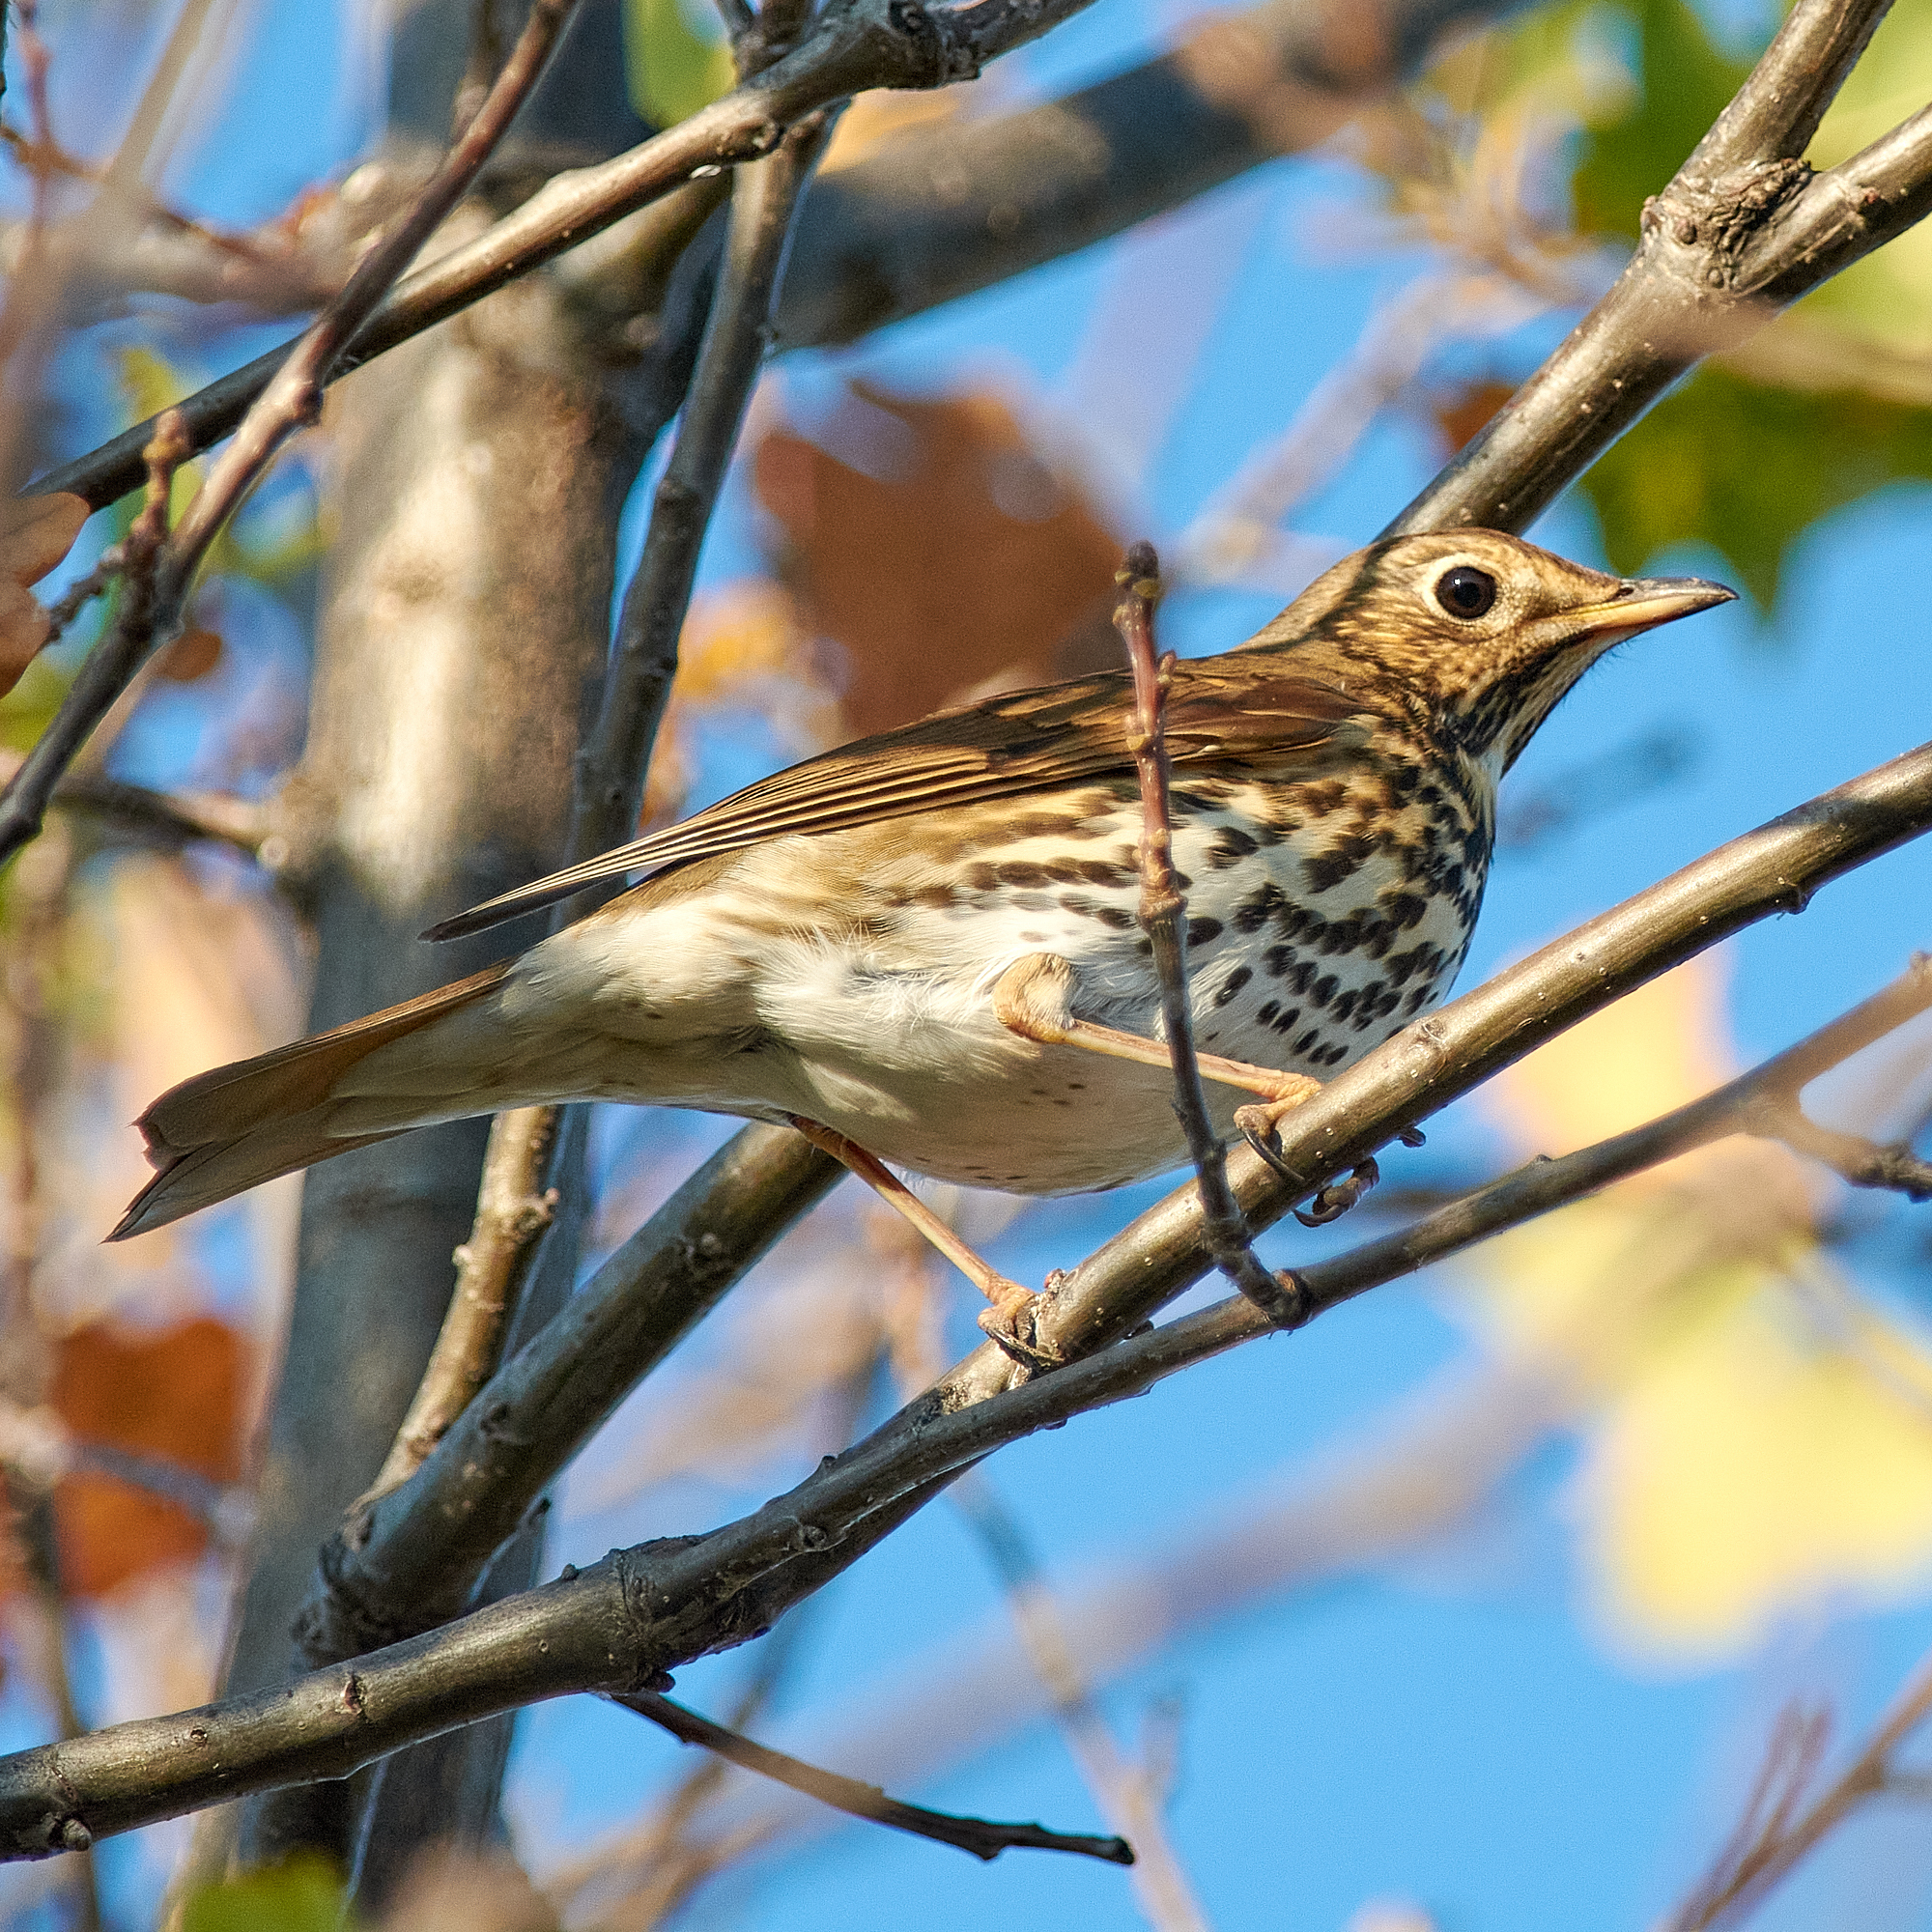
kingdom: Animalia
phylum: Chordata
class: Aves
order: Passeriformes
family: Turdidae
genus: Turdus
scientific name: Turdus philomelos
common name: Song thrush
